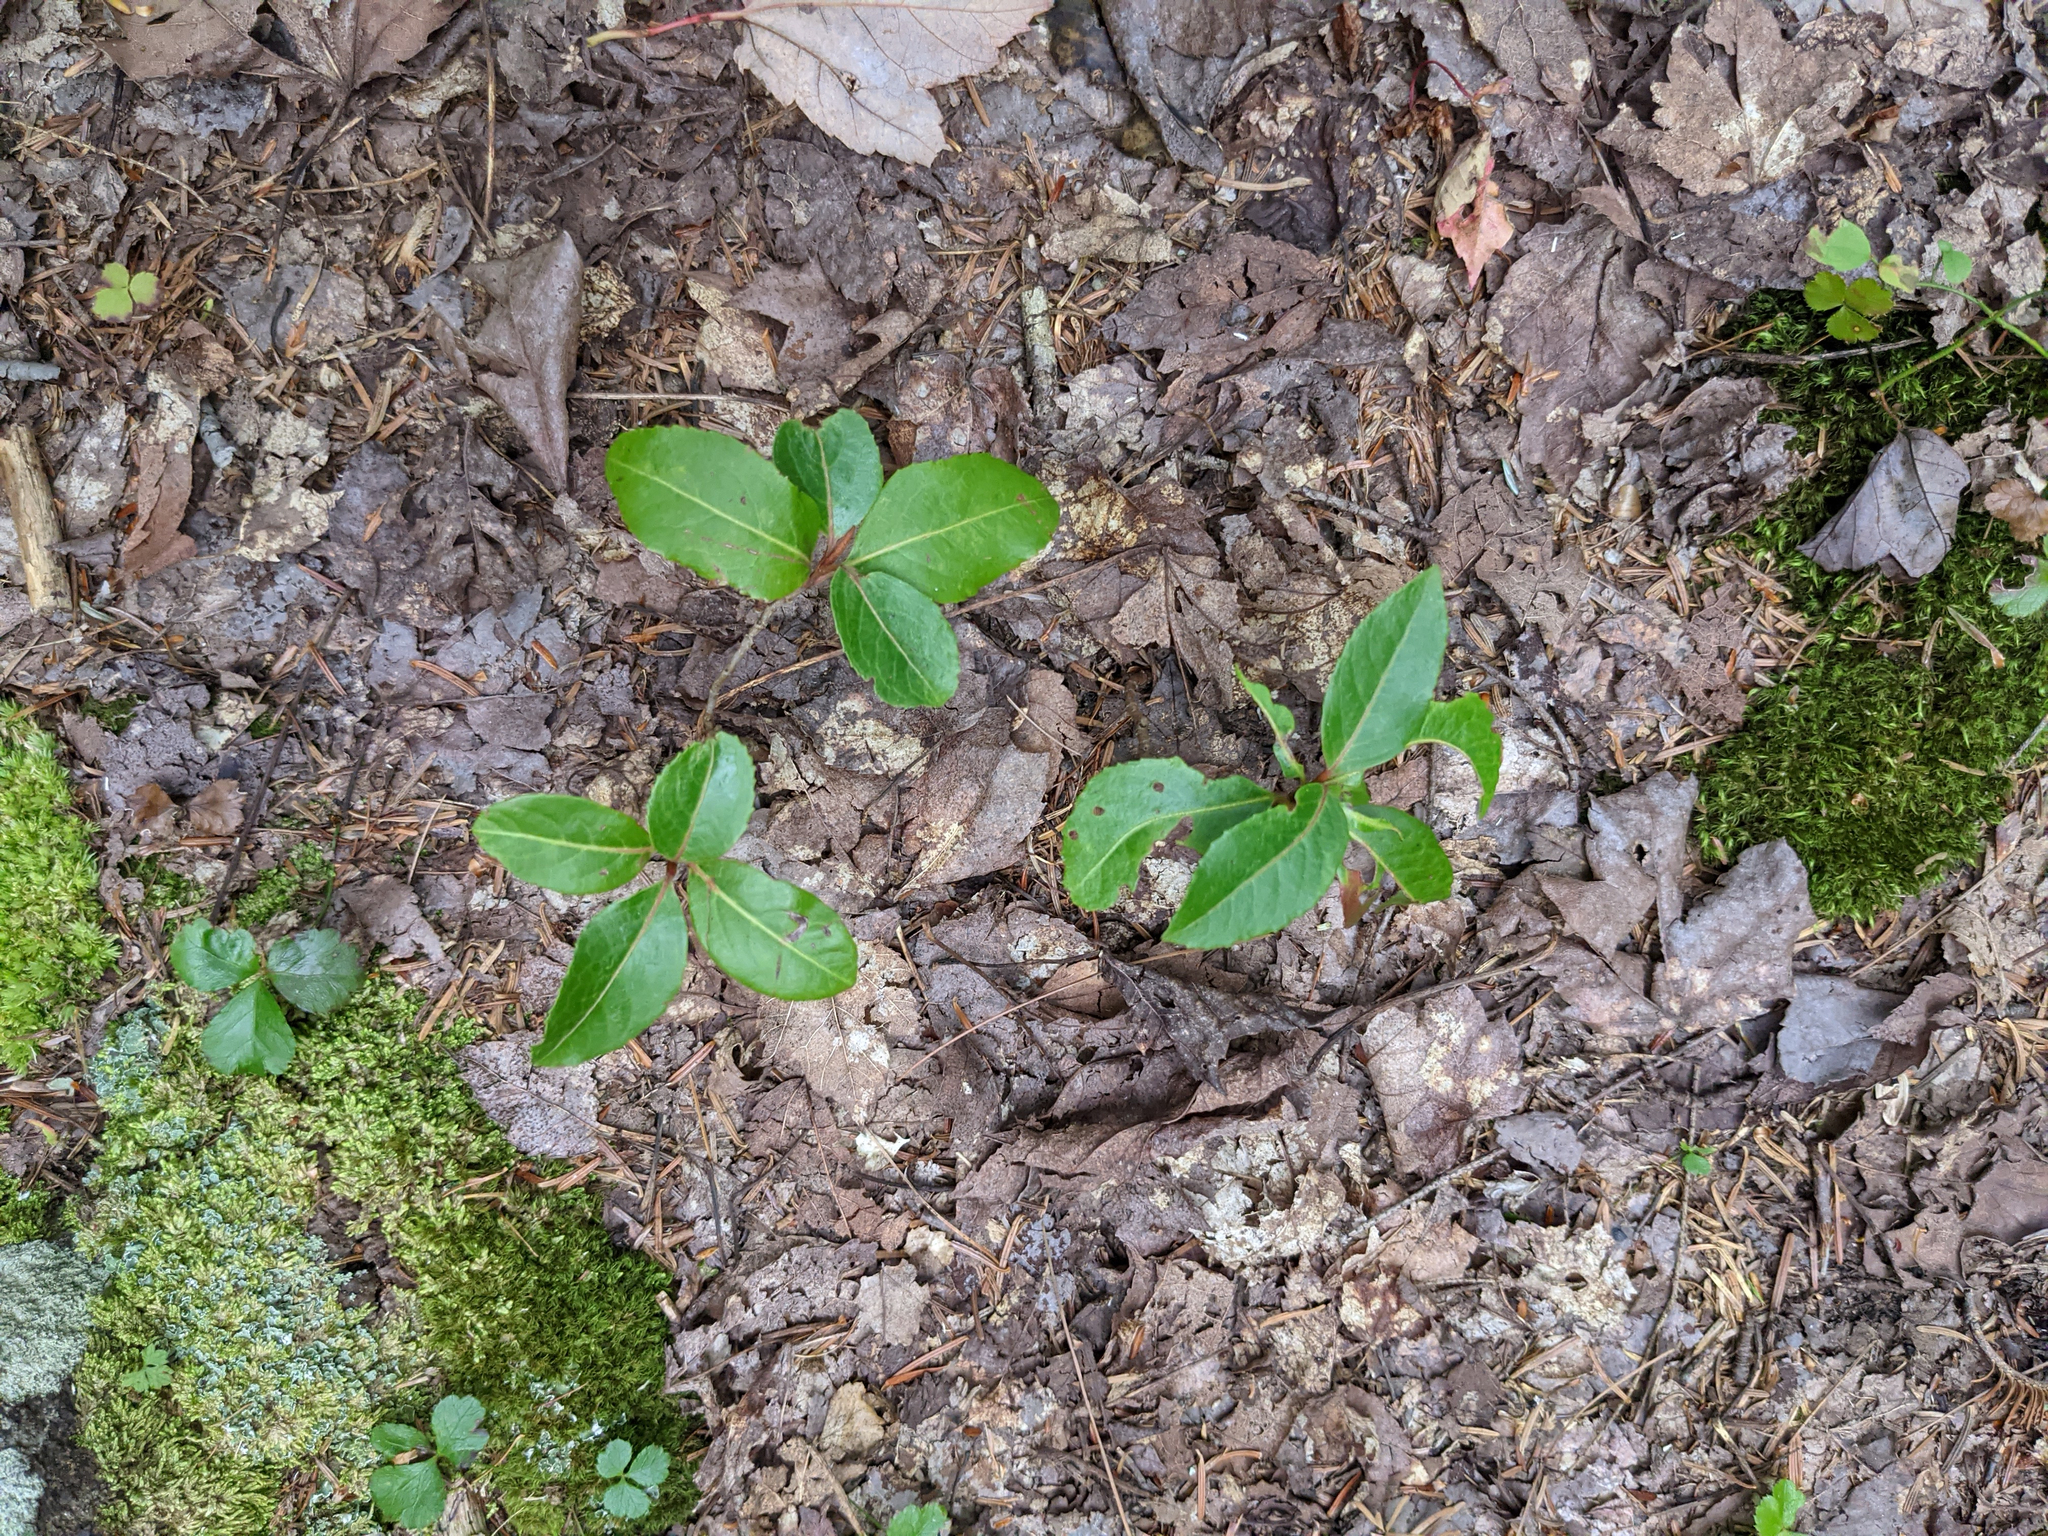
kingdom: Plantae
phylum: Tracheophyta
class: Magnoliopsida
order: Ranunculales
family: Ranunculaceae
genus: Coptis
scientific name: Coptis trifolia
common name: Canker-root
